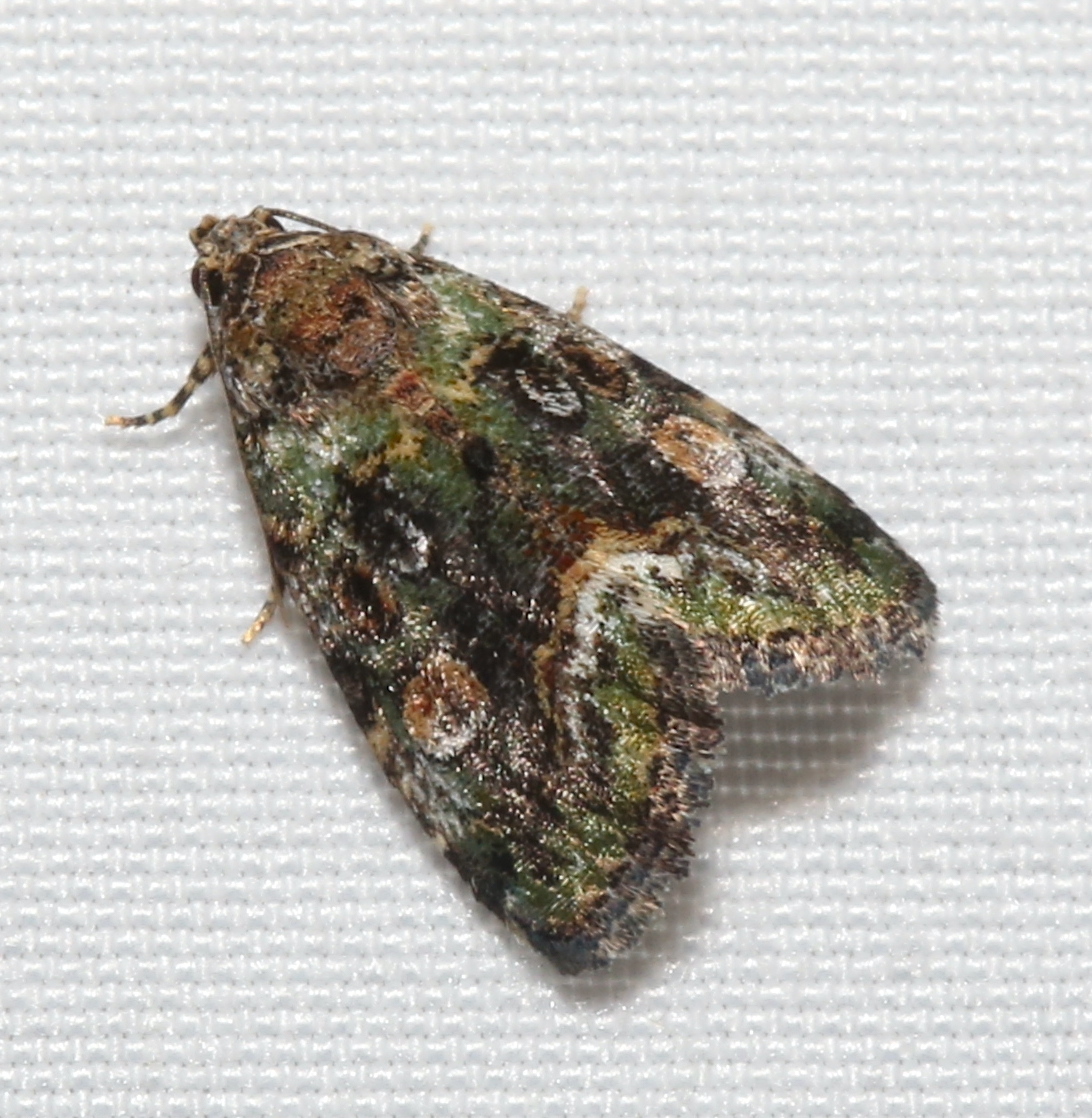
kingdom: Animalia
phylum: Arthropoda
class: Insecta
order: Lepidoptera
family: Noctuidae
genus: Lithacodia
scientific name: Lithacodia musta
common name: Small mossy glyph
